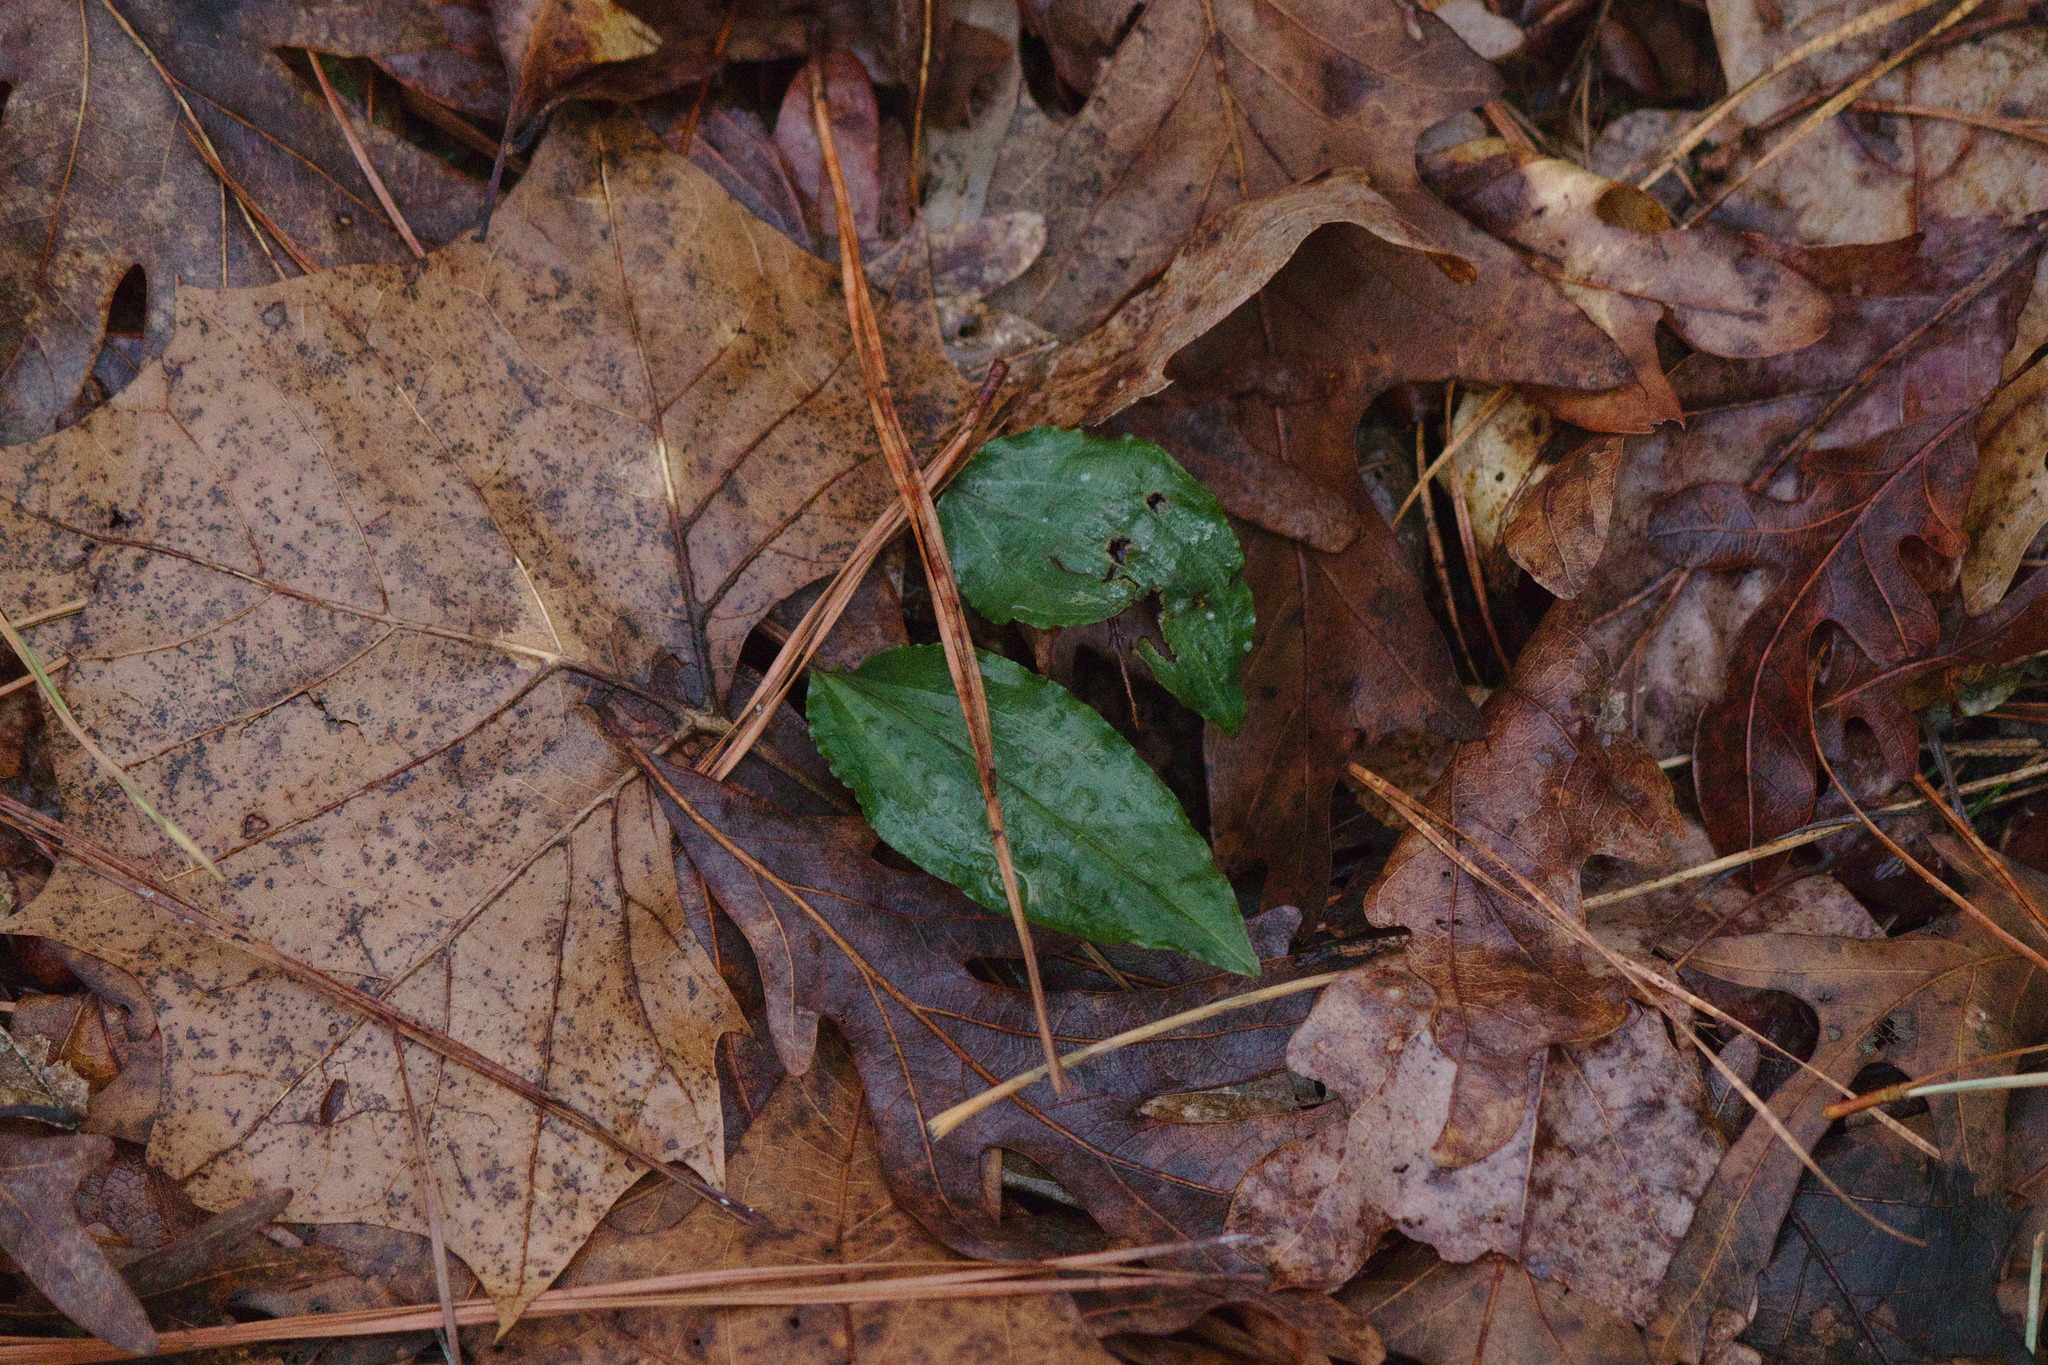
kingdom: Plantae
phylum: Tracheophyta
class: Liliopsida
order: Asparagales
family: Orchidaceae
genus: Tipularia
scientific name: Tipularia discolor
